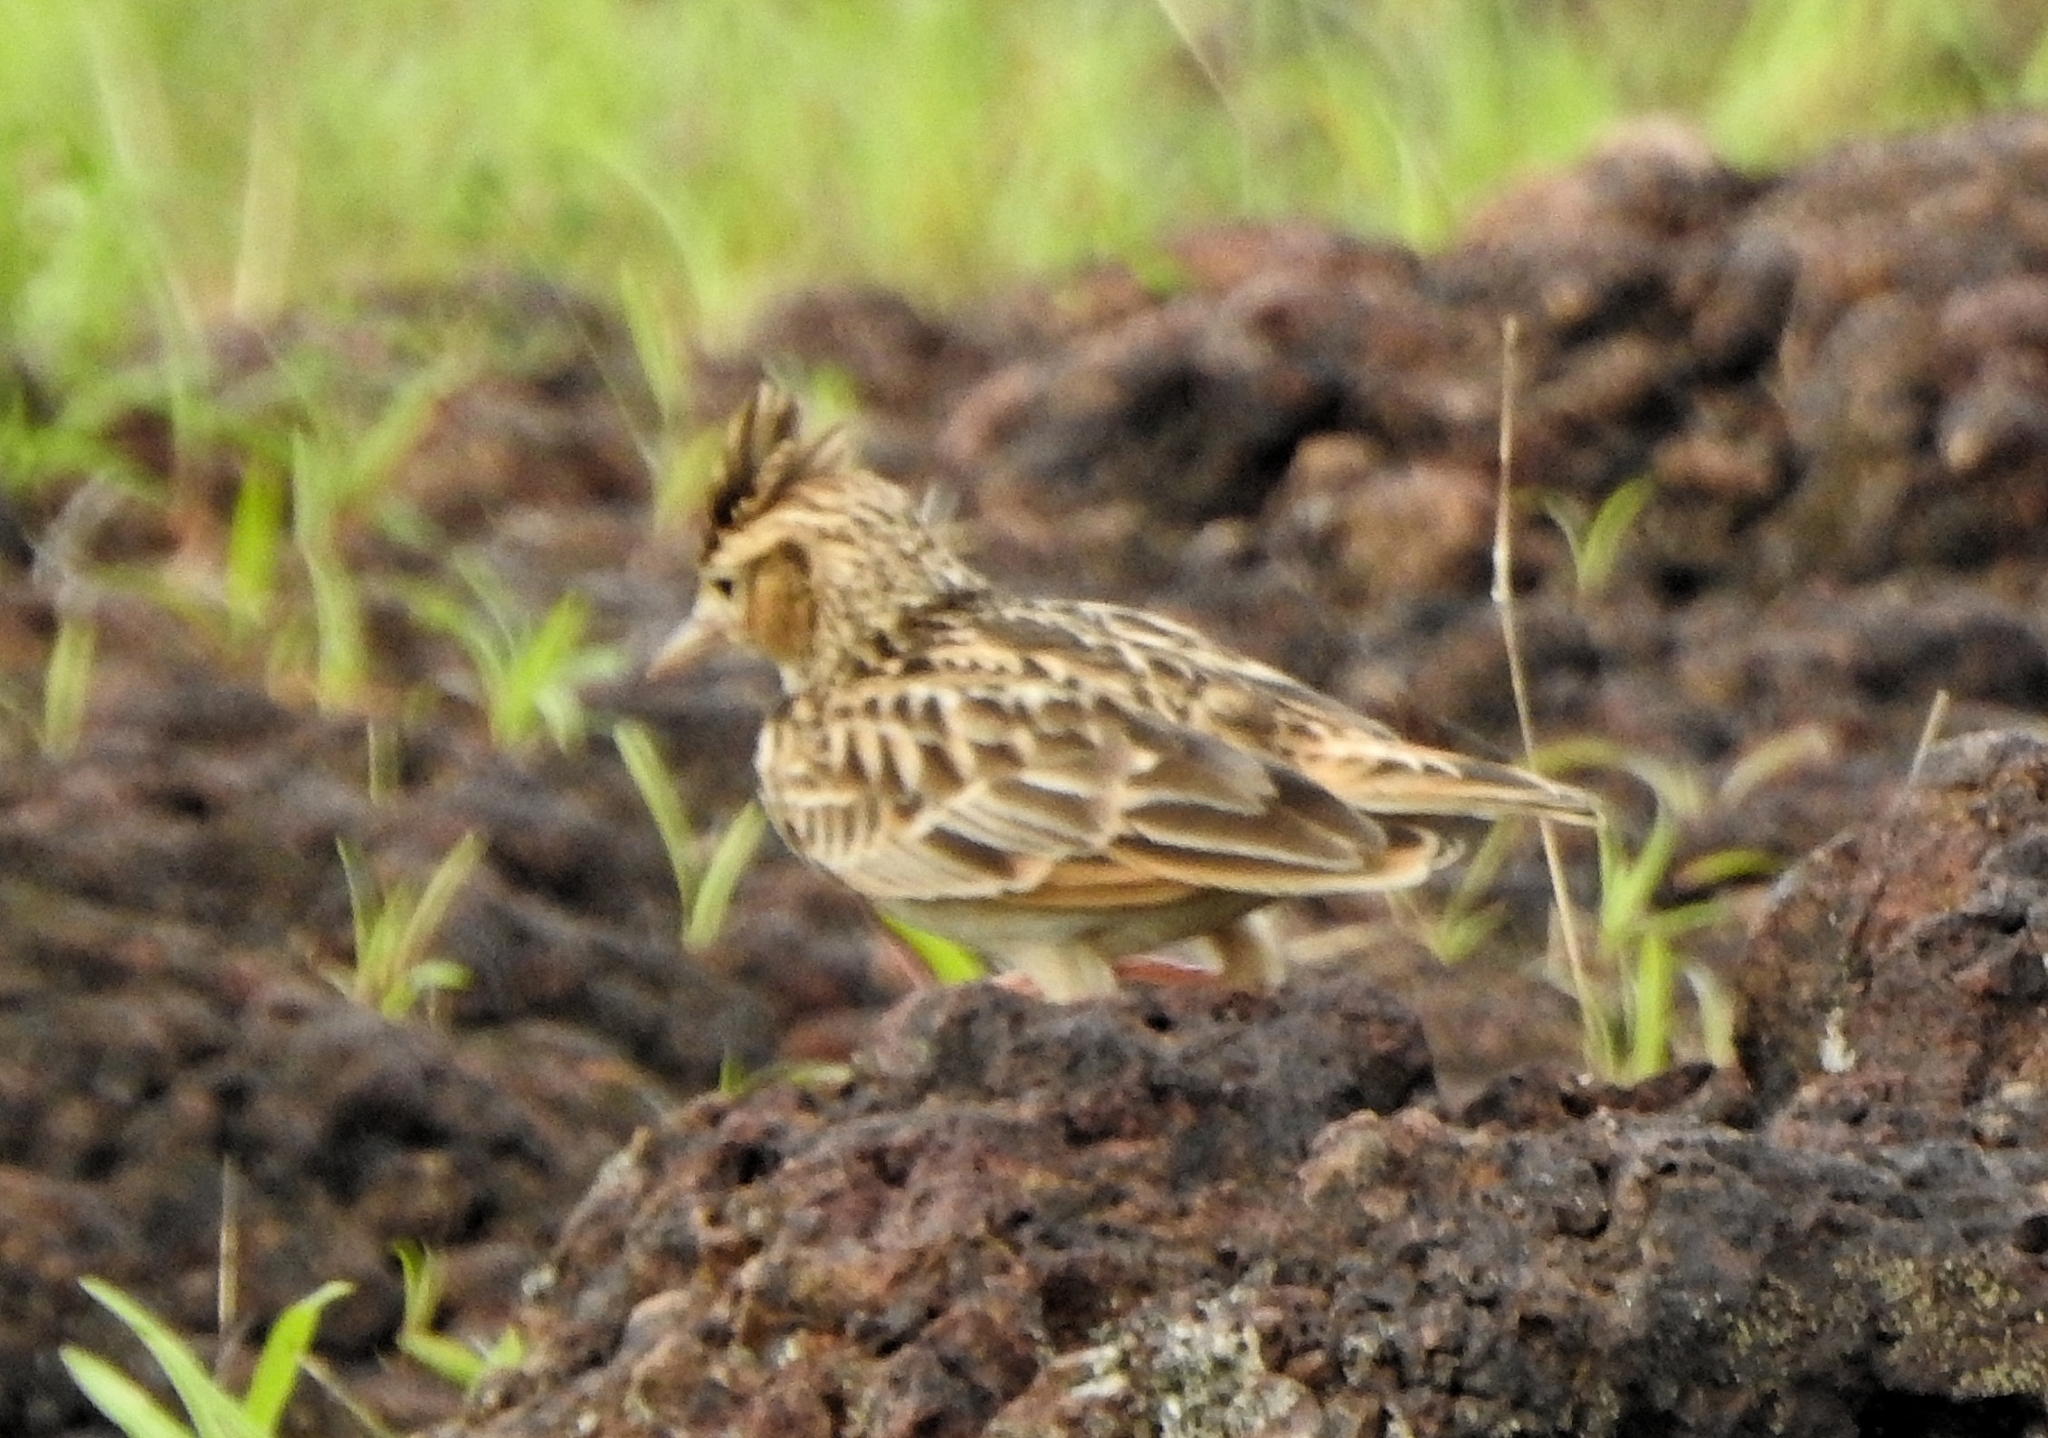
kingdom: Animalia
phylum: Chordata
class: Aves
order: Passeriformes
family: Alaudidae
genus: Alauda
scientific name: Alauda gulgula
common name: Oriental skylark
